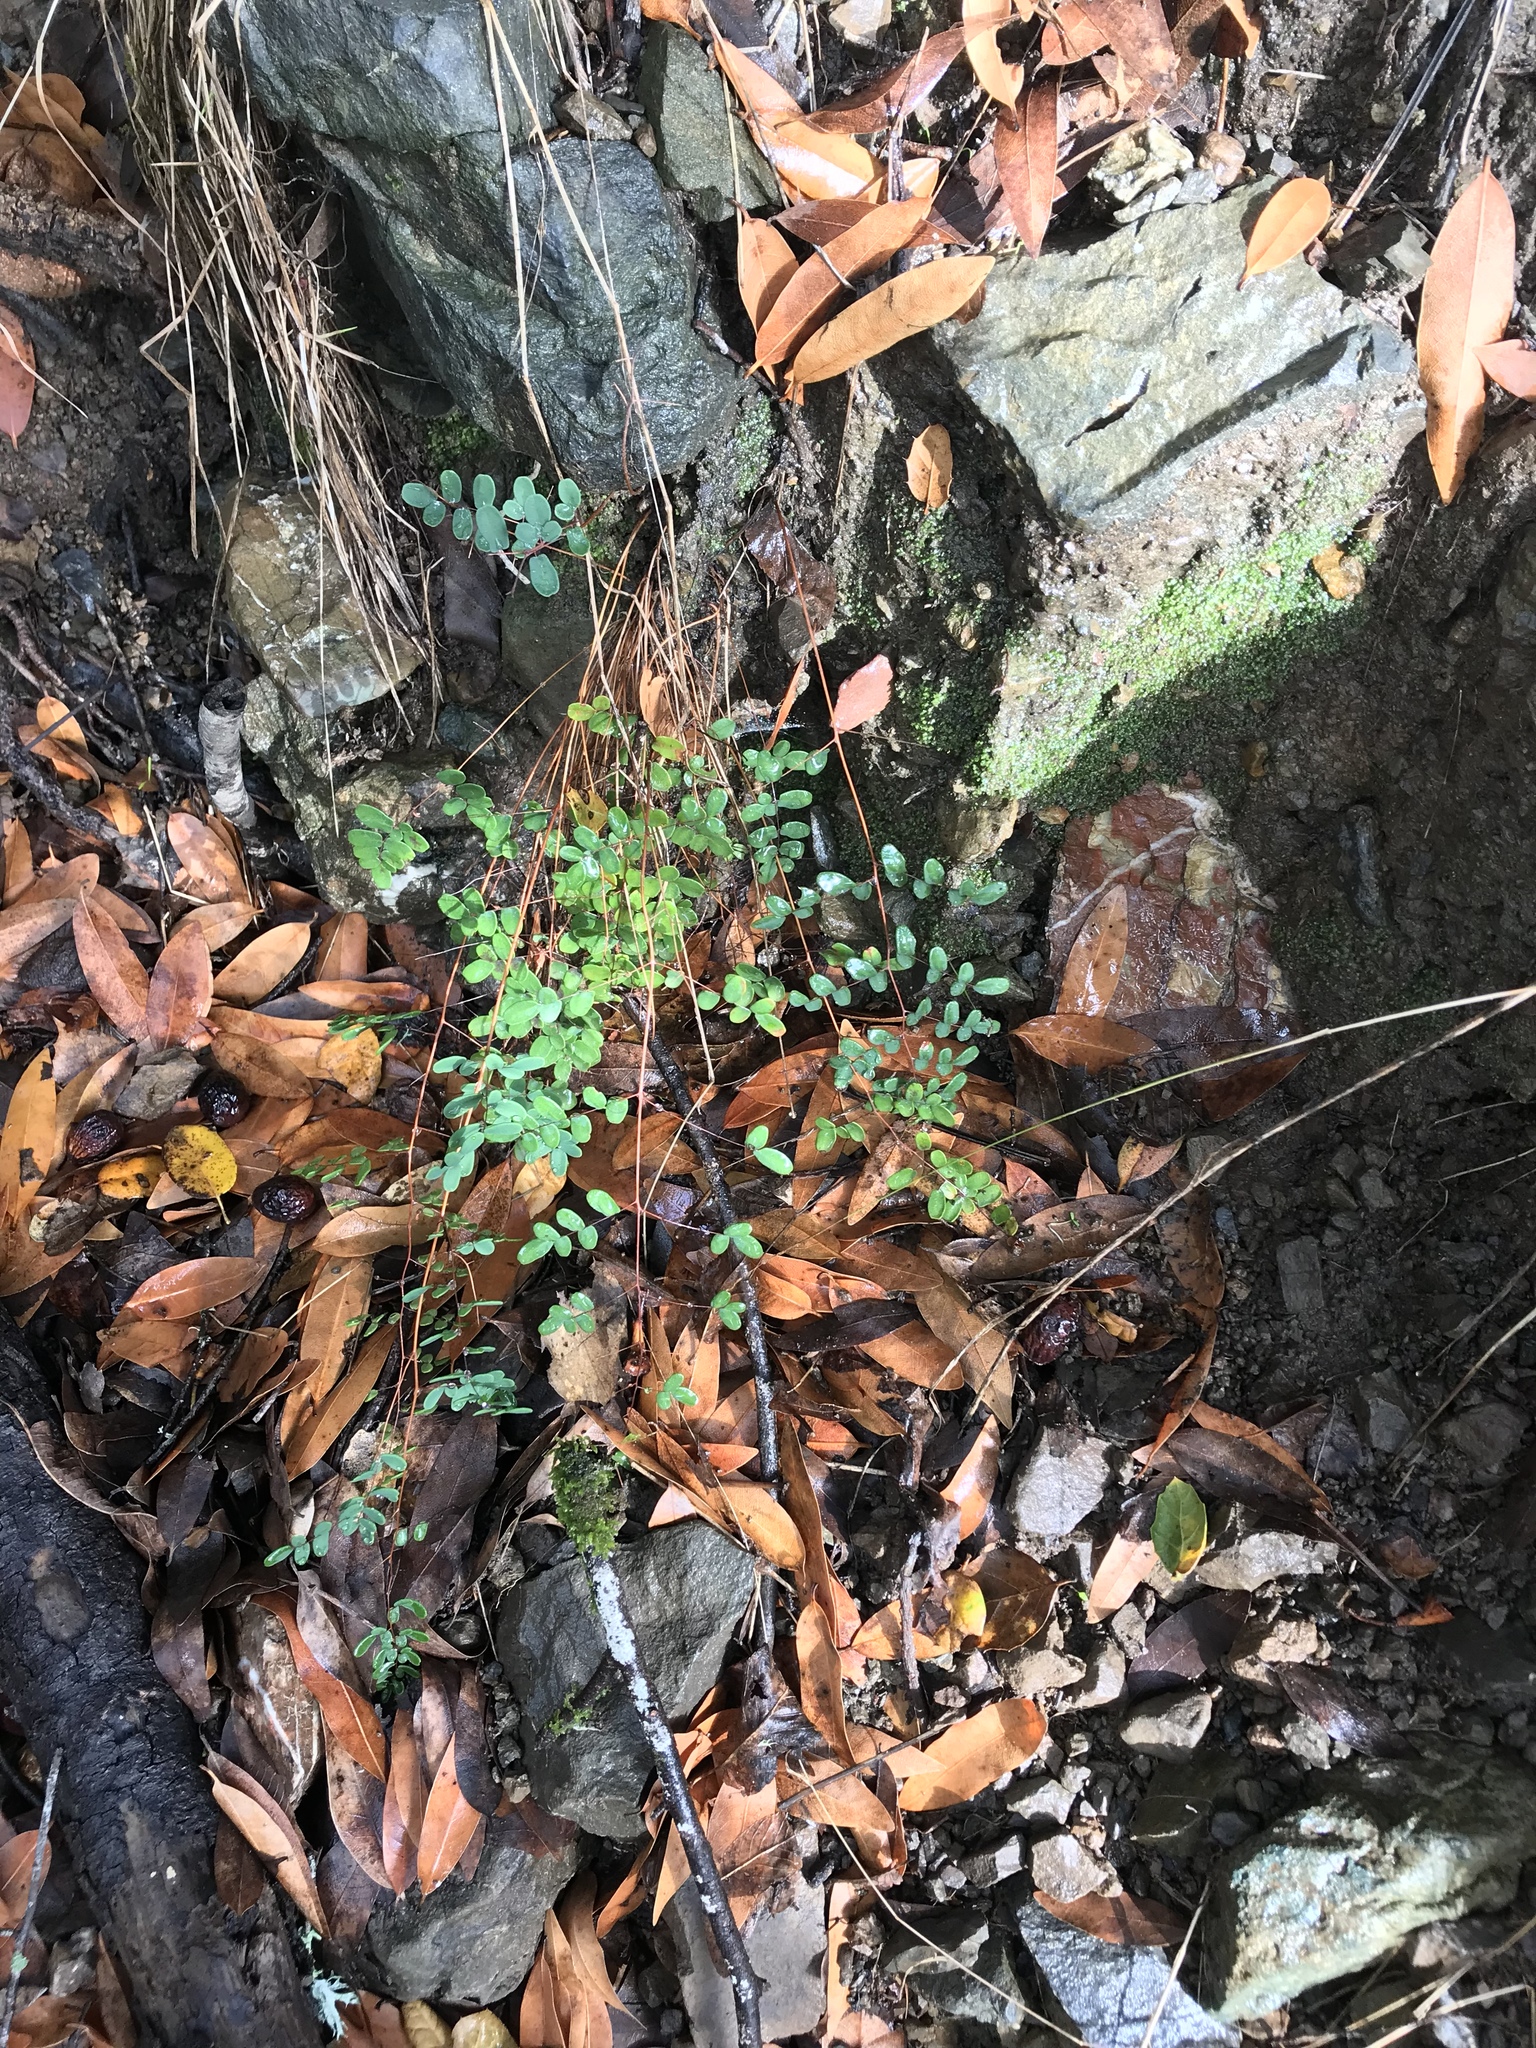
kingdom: Plantae
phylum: Tracheophyta
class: Polypodiopsida
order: Polypodiales
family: Pteridaceae
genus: Pellaea
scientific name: Pellaea andromedifolia
